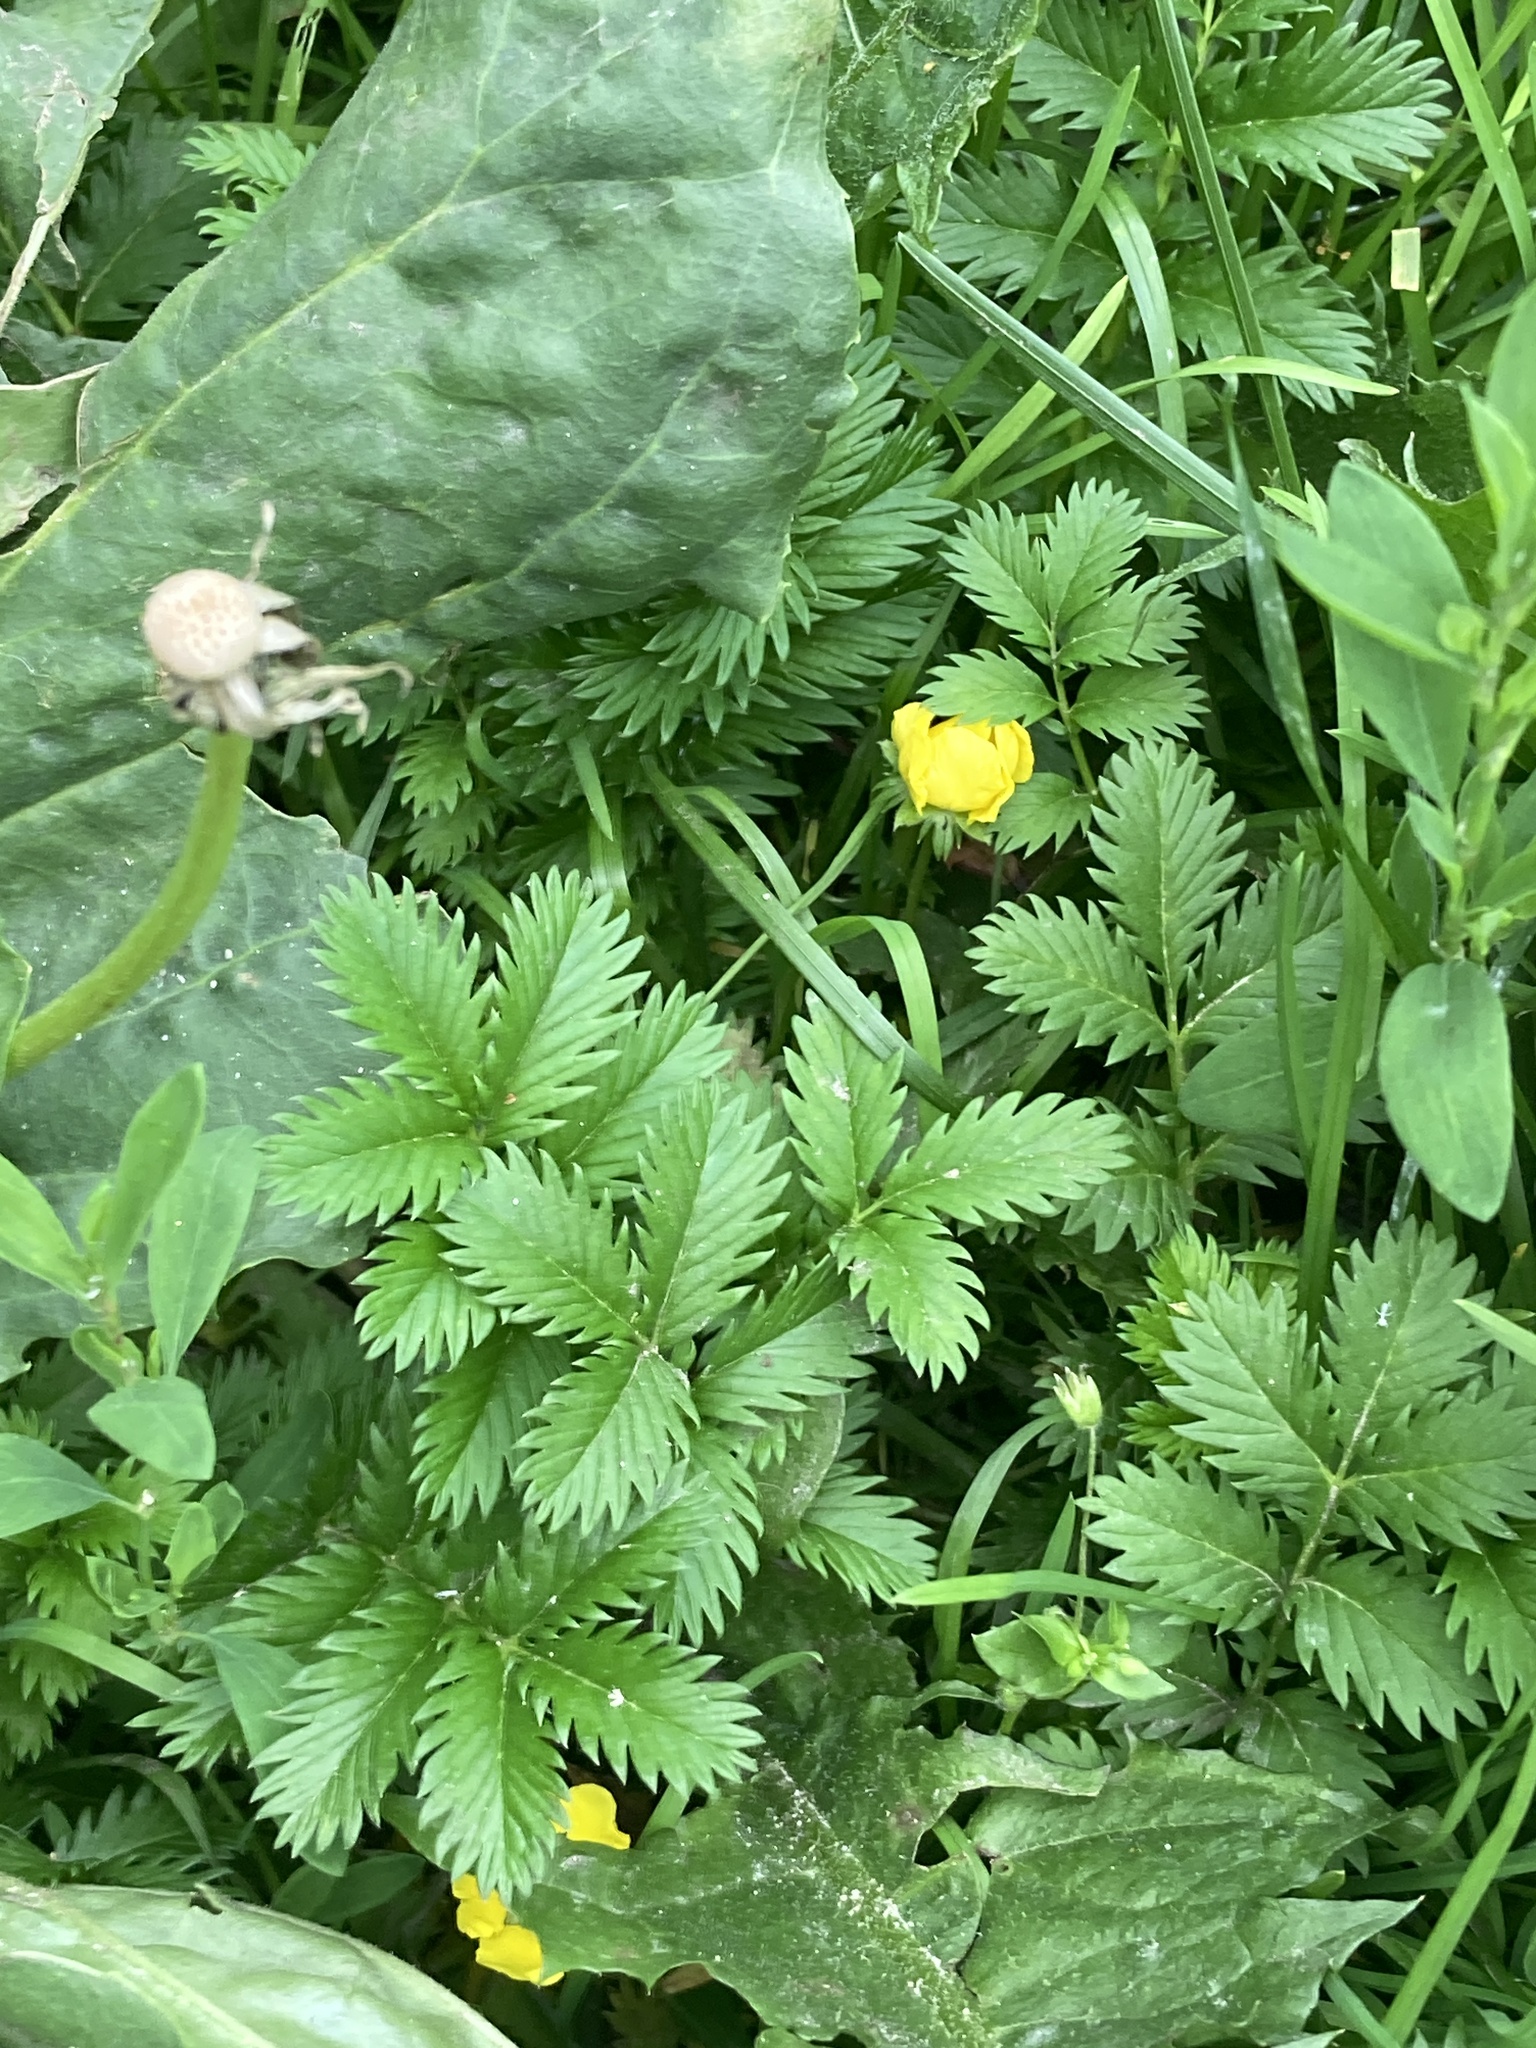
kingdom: Plantae
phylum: Tracheophyta
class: Magnoliopsida
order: Rosales
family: Rosaceae
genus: Argentina
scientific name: Argentina anserina
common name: Common silverweed
